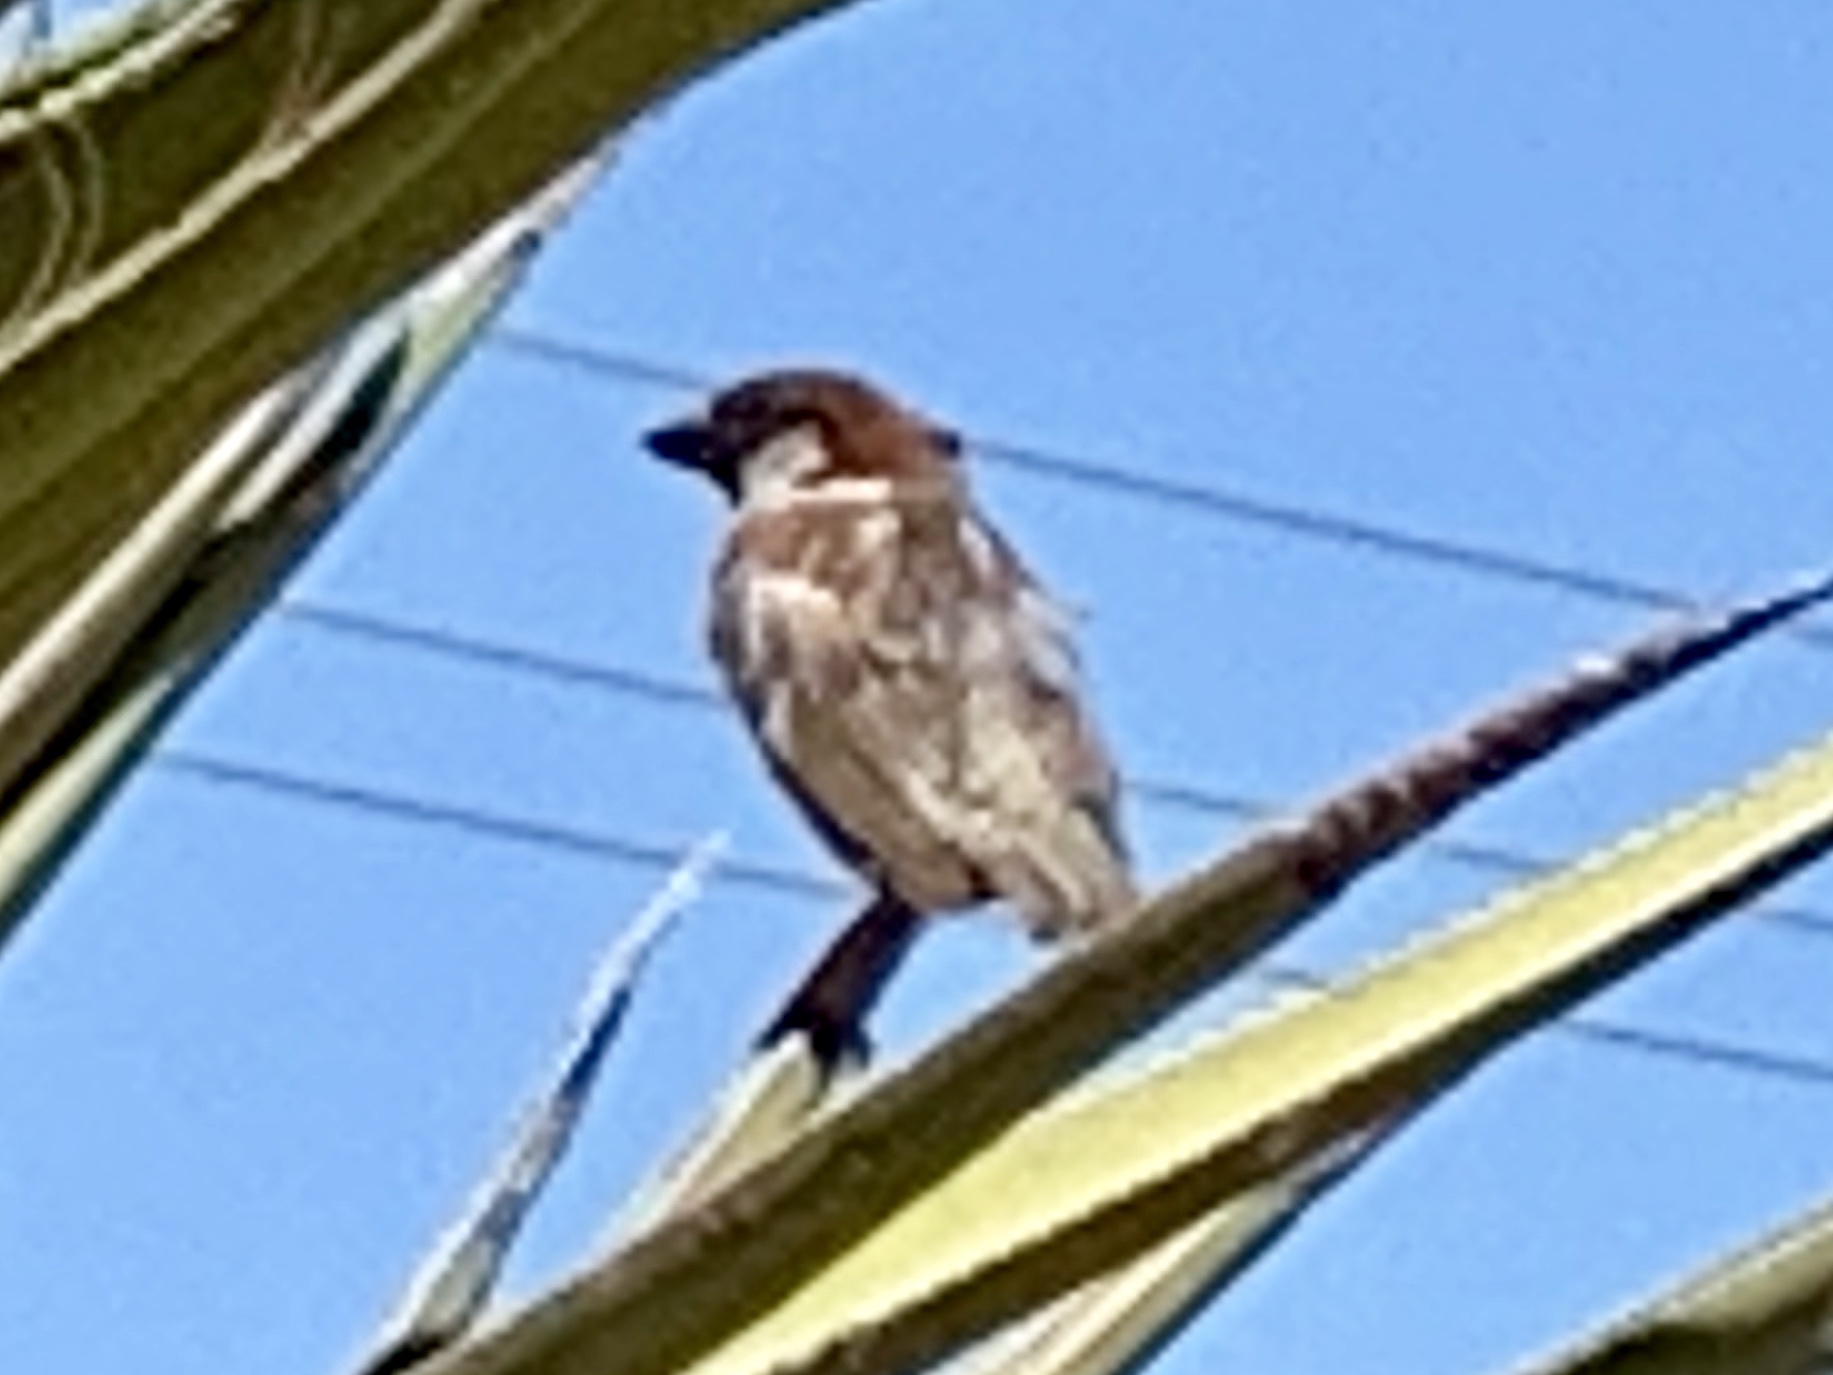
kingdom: Animalia
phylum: Chordata
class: Aves
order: Passeriformes
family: Passeridae
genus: Passer
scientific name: Passer domesticus
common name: House sparrow
